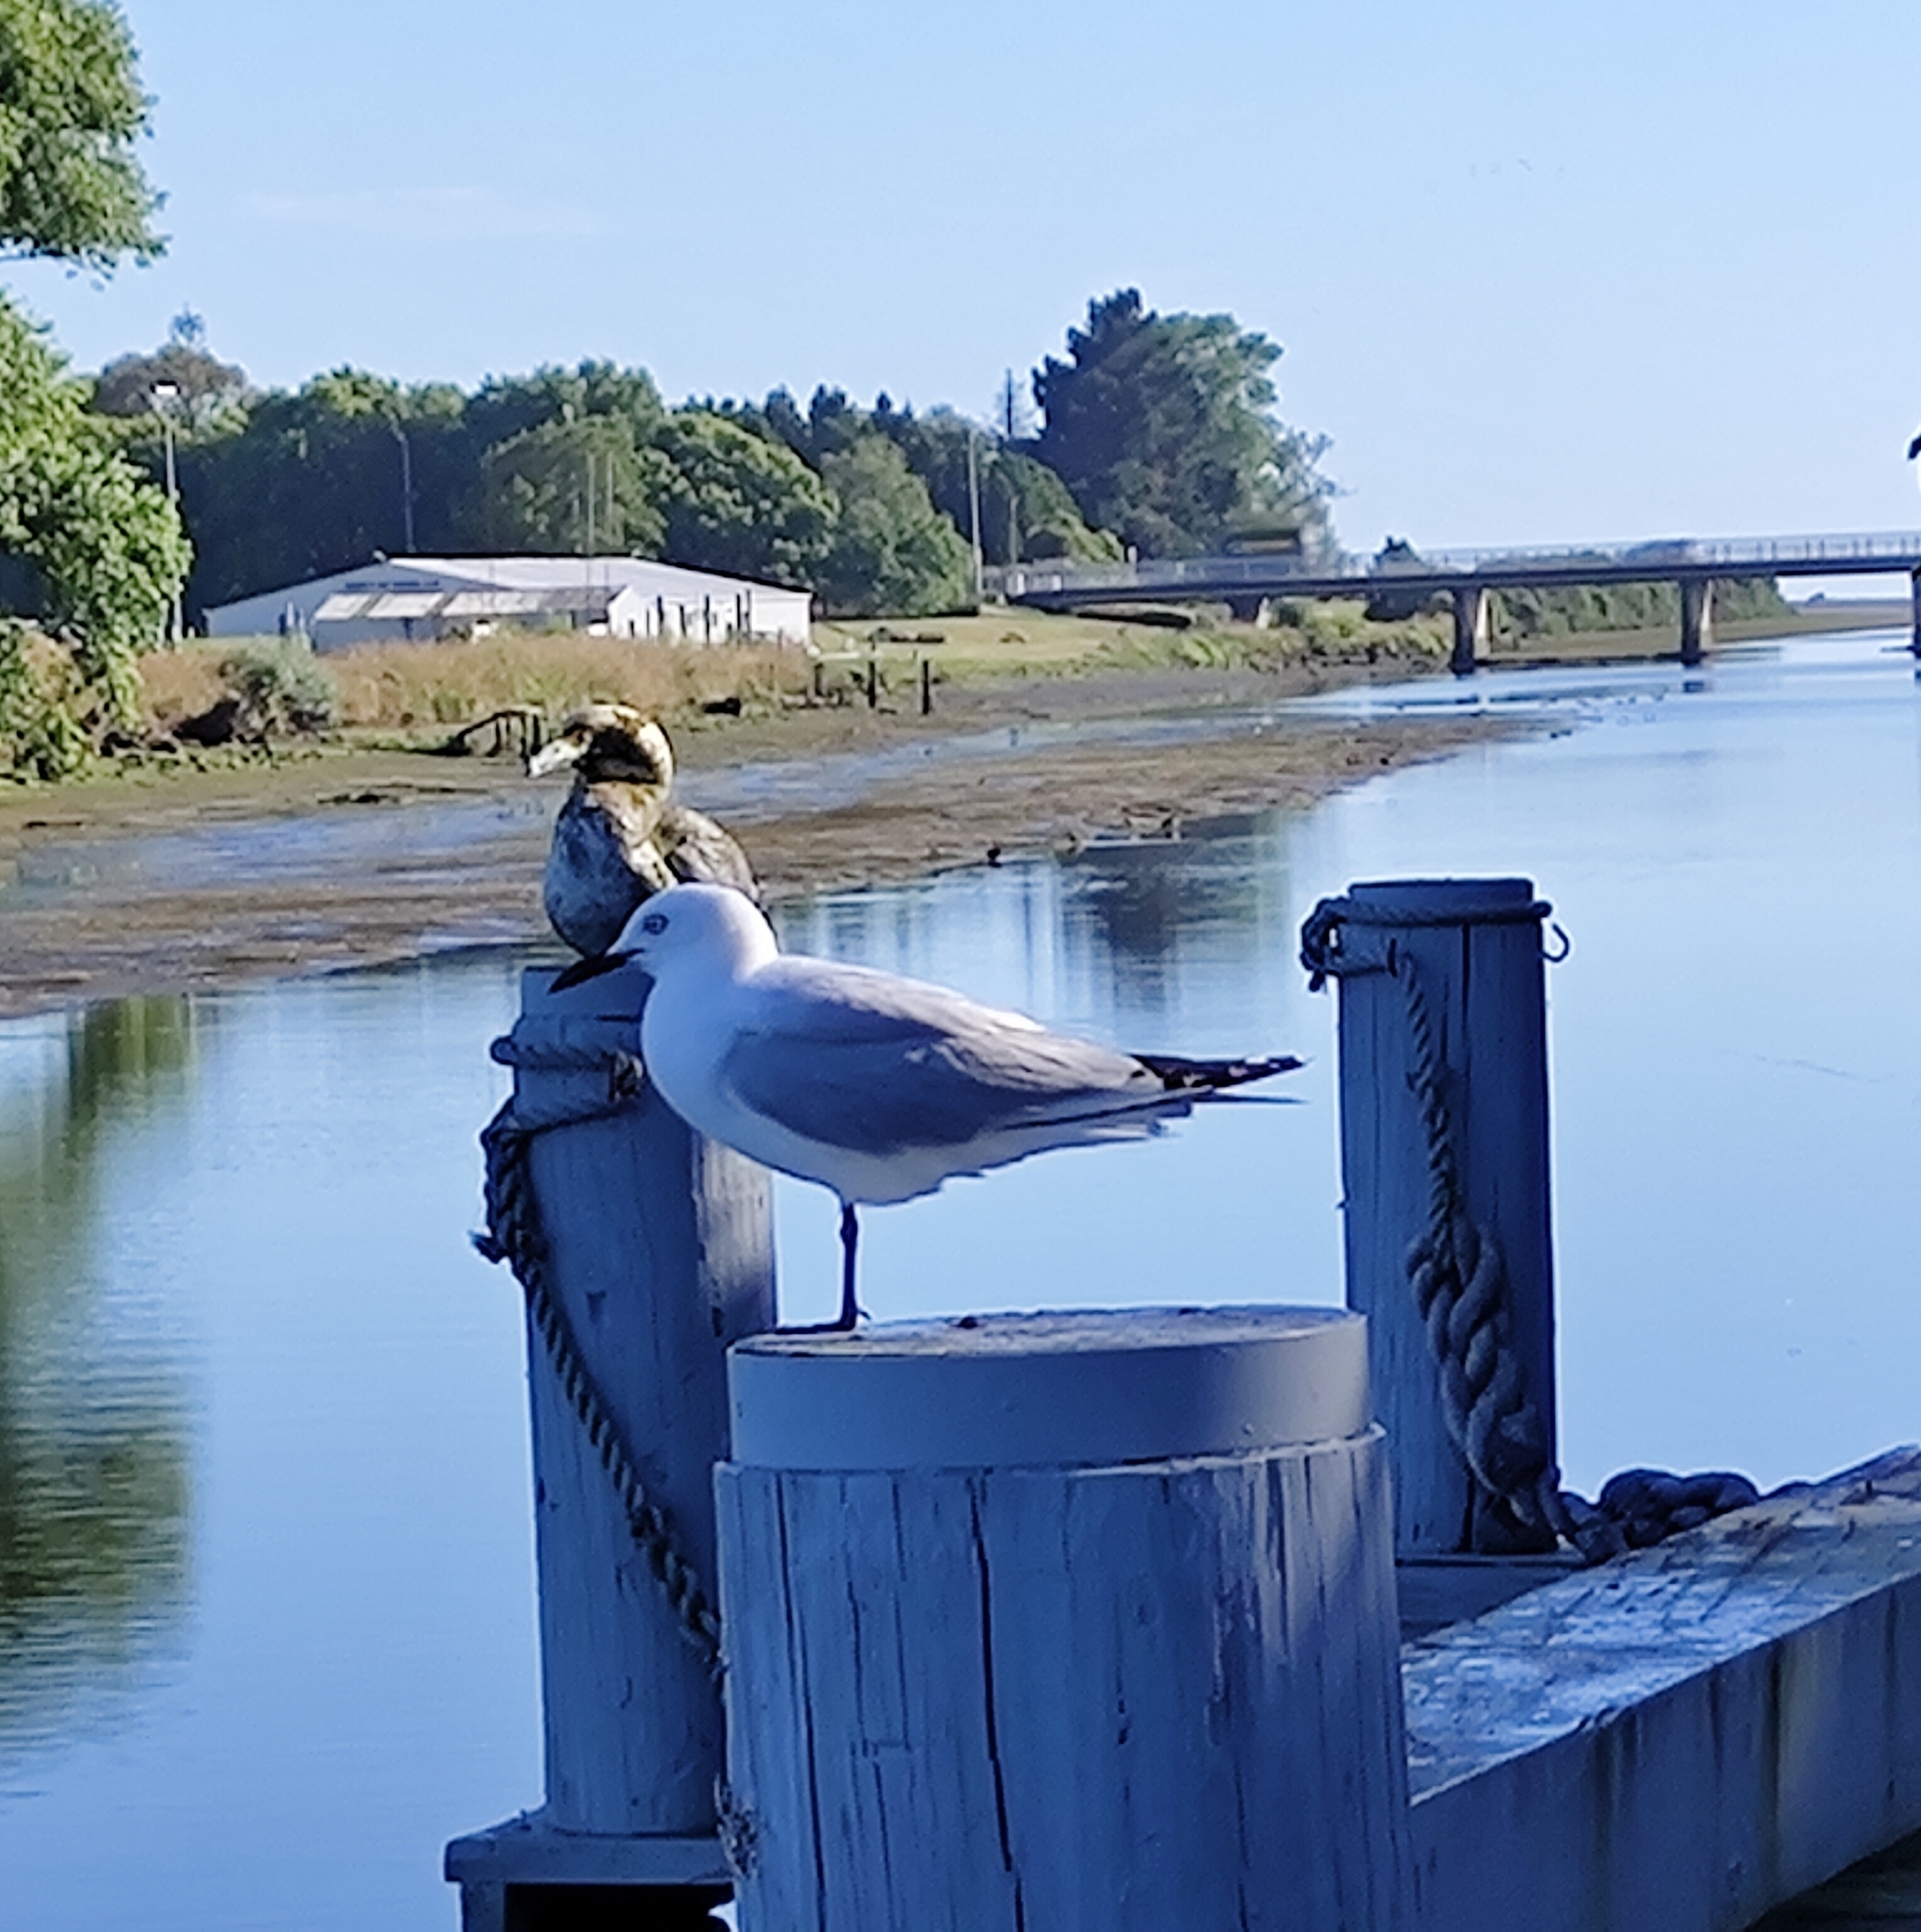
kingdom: Animalia
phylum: Chordata
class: Aves
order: Charadriiformes
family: Laridae
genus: Chroicocephalus
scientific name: Chroicocephalus bulleri
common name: Black-billed gull
